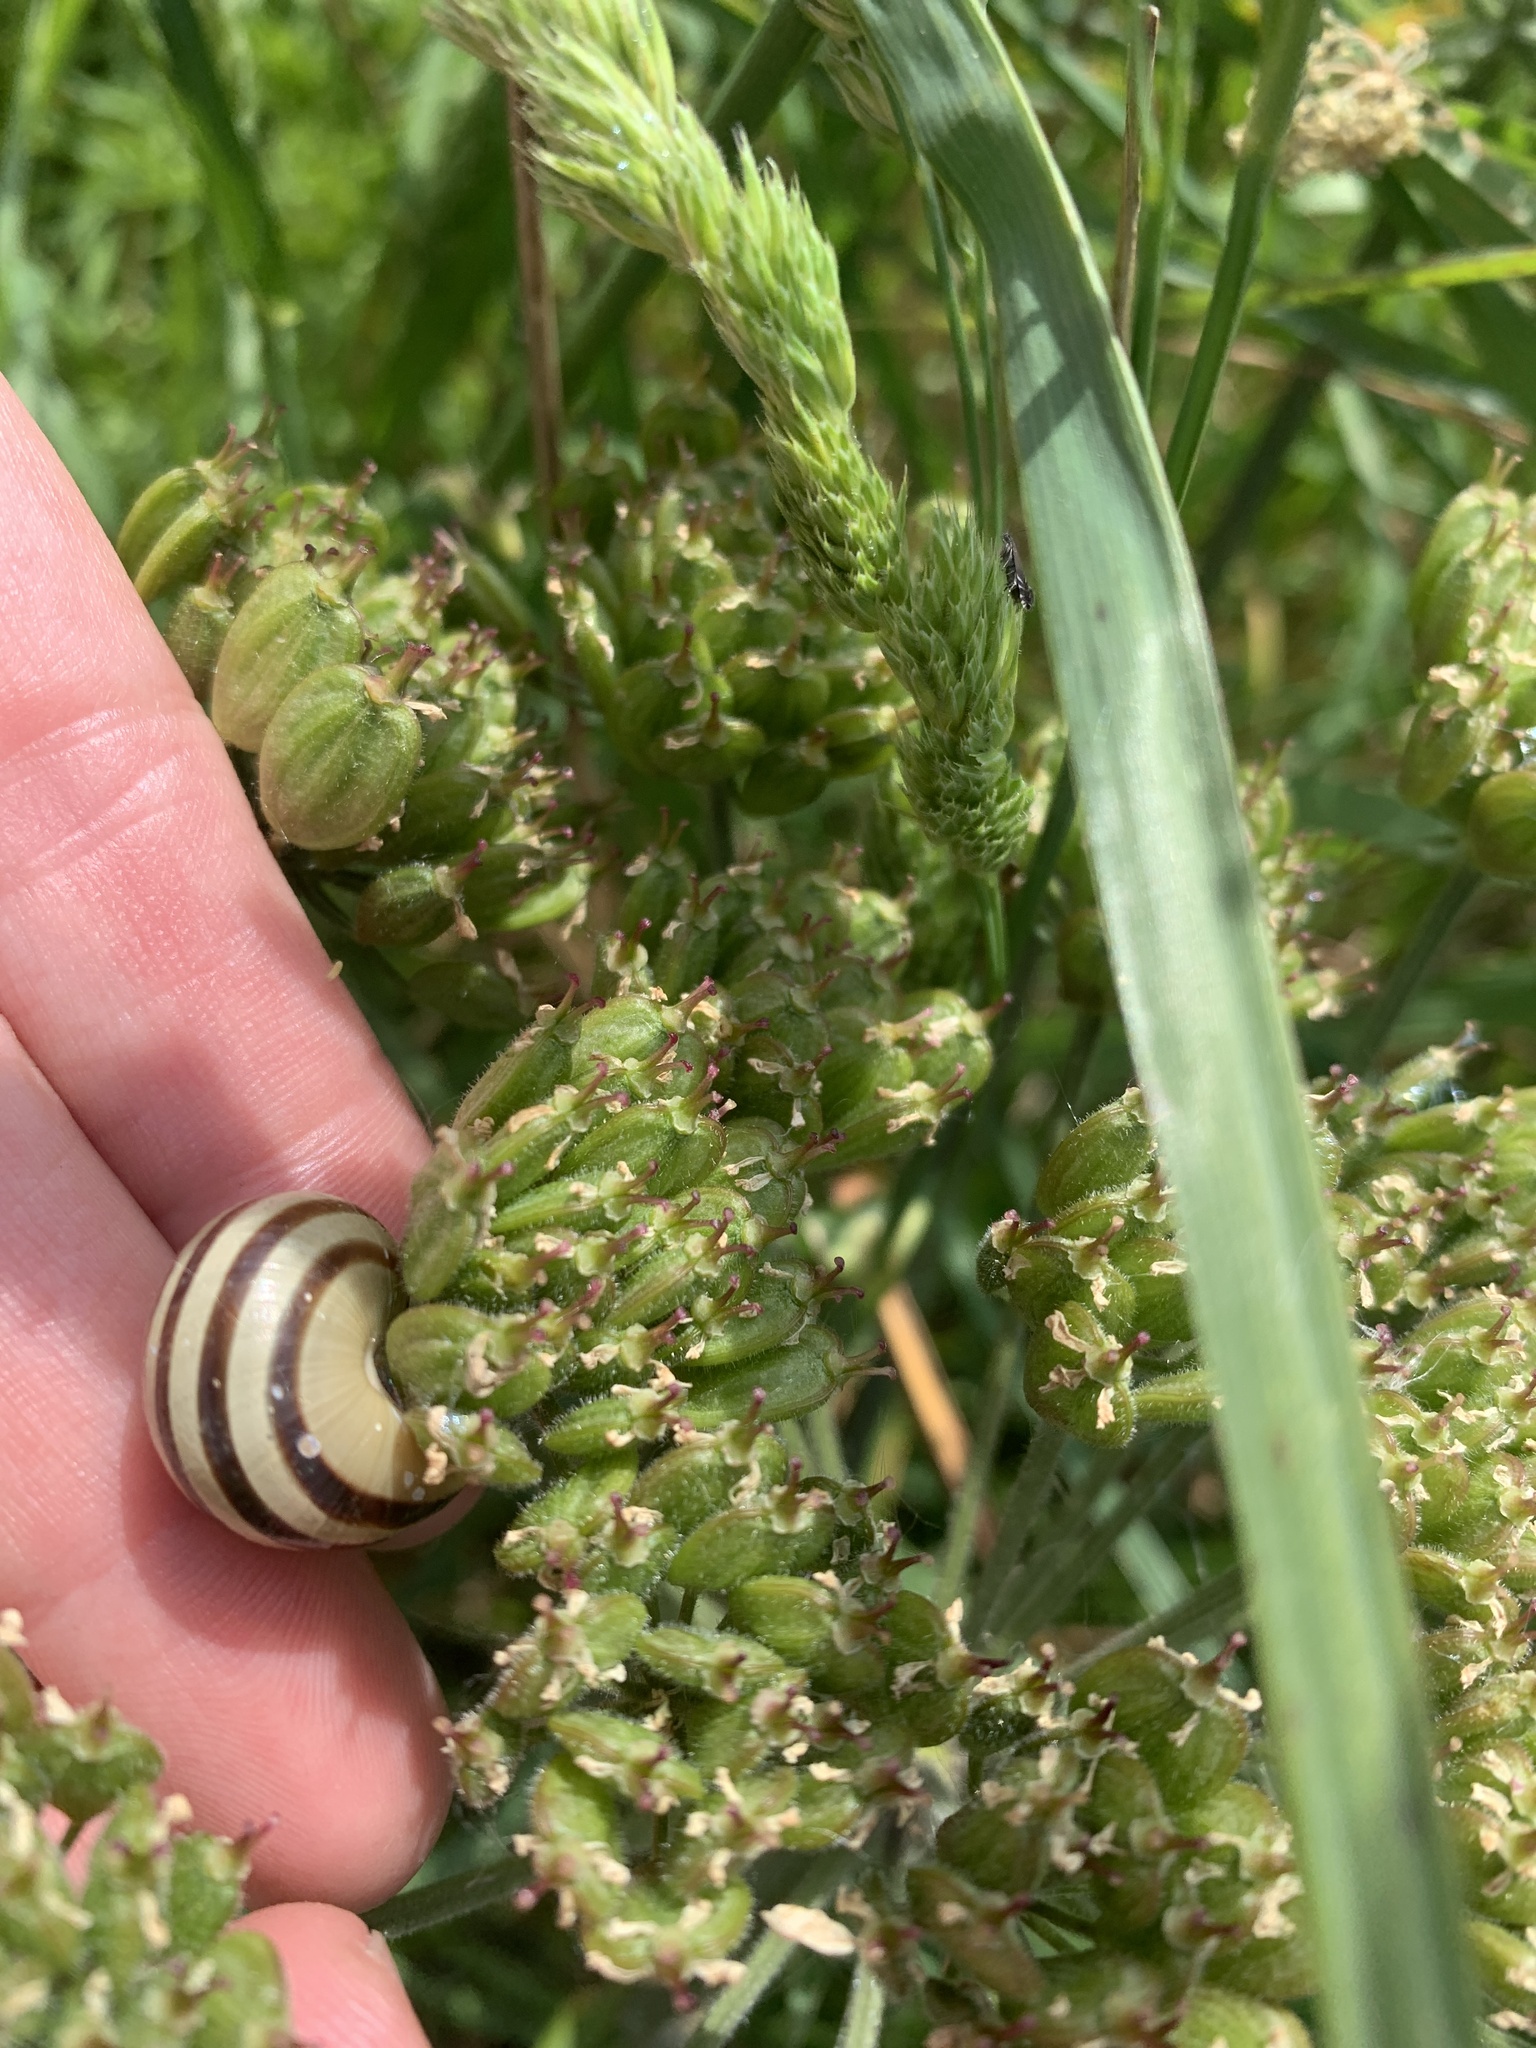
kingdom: Animalia
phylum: Mollusca
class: Gastropoda
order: Stylommatophora
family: Helicidae
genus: Cepaea
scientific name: Cepaea
